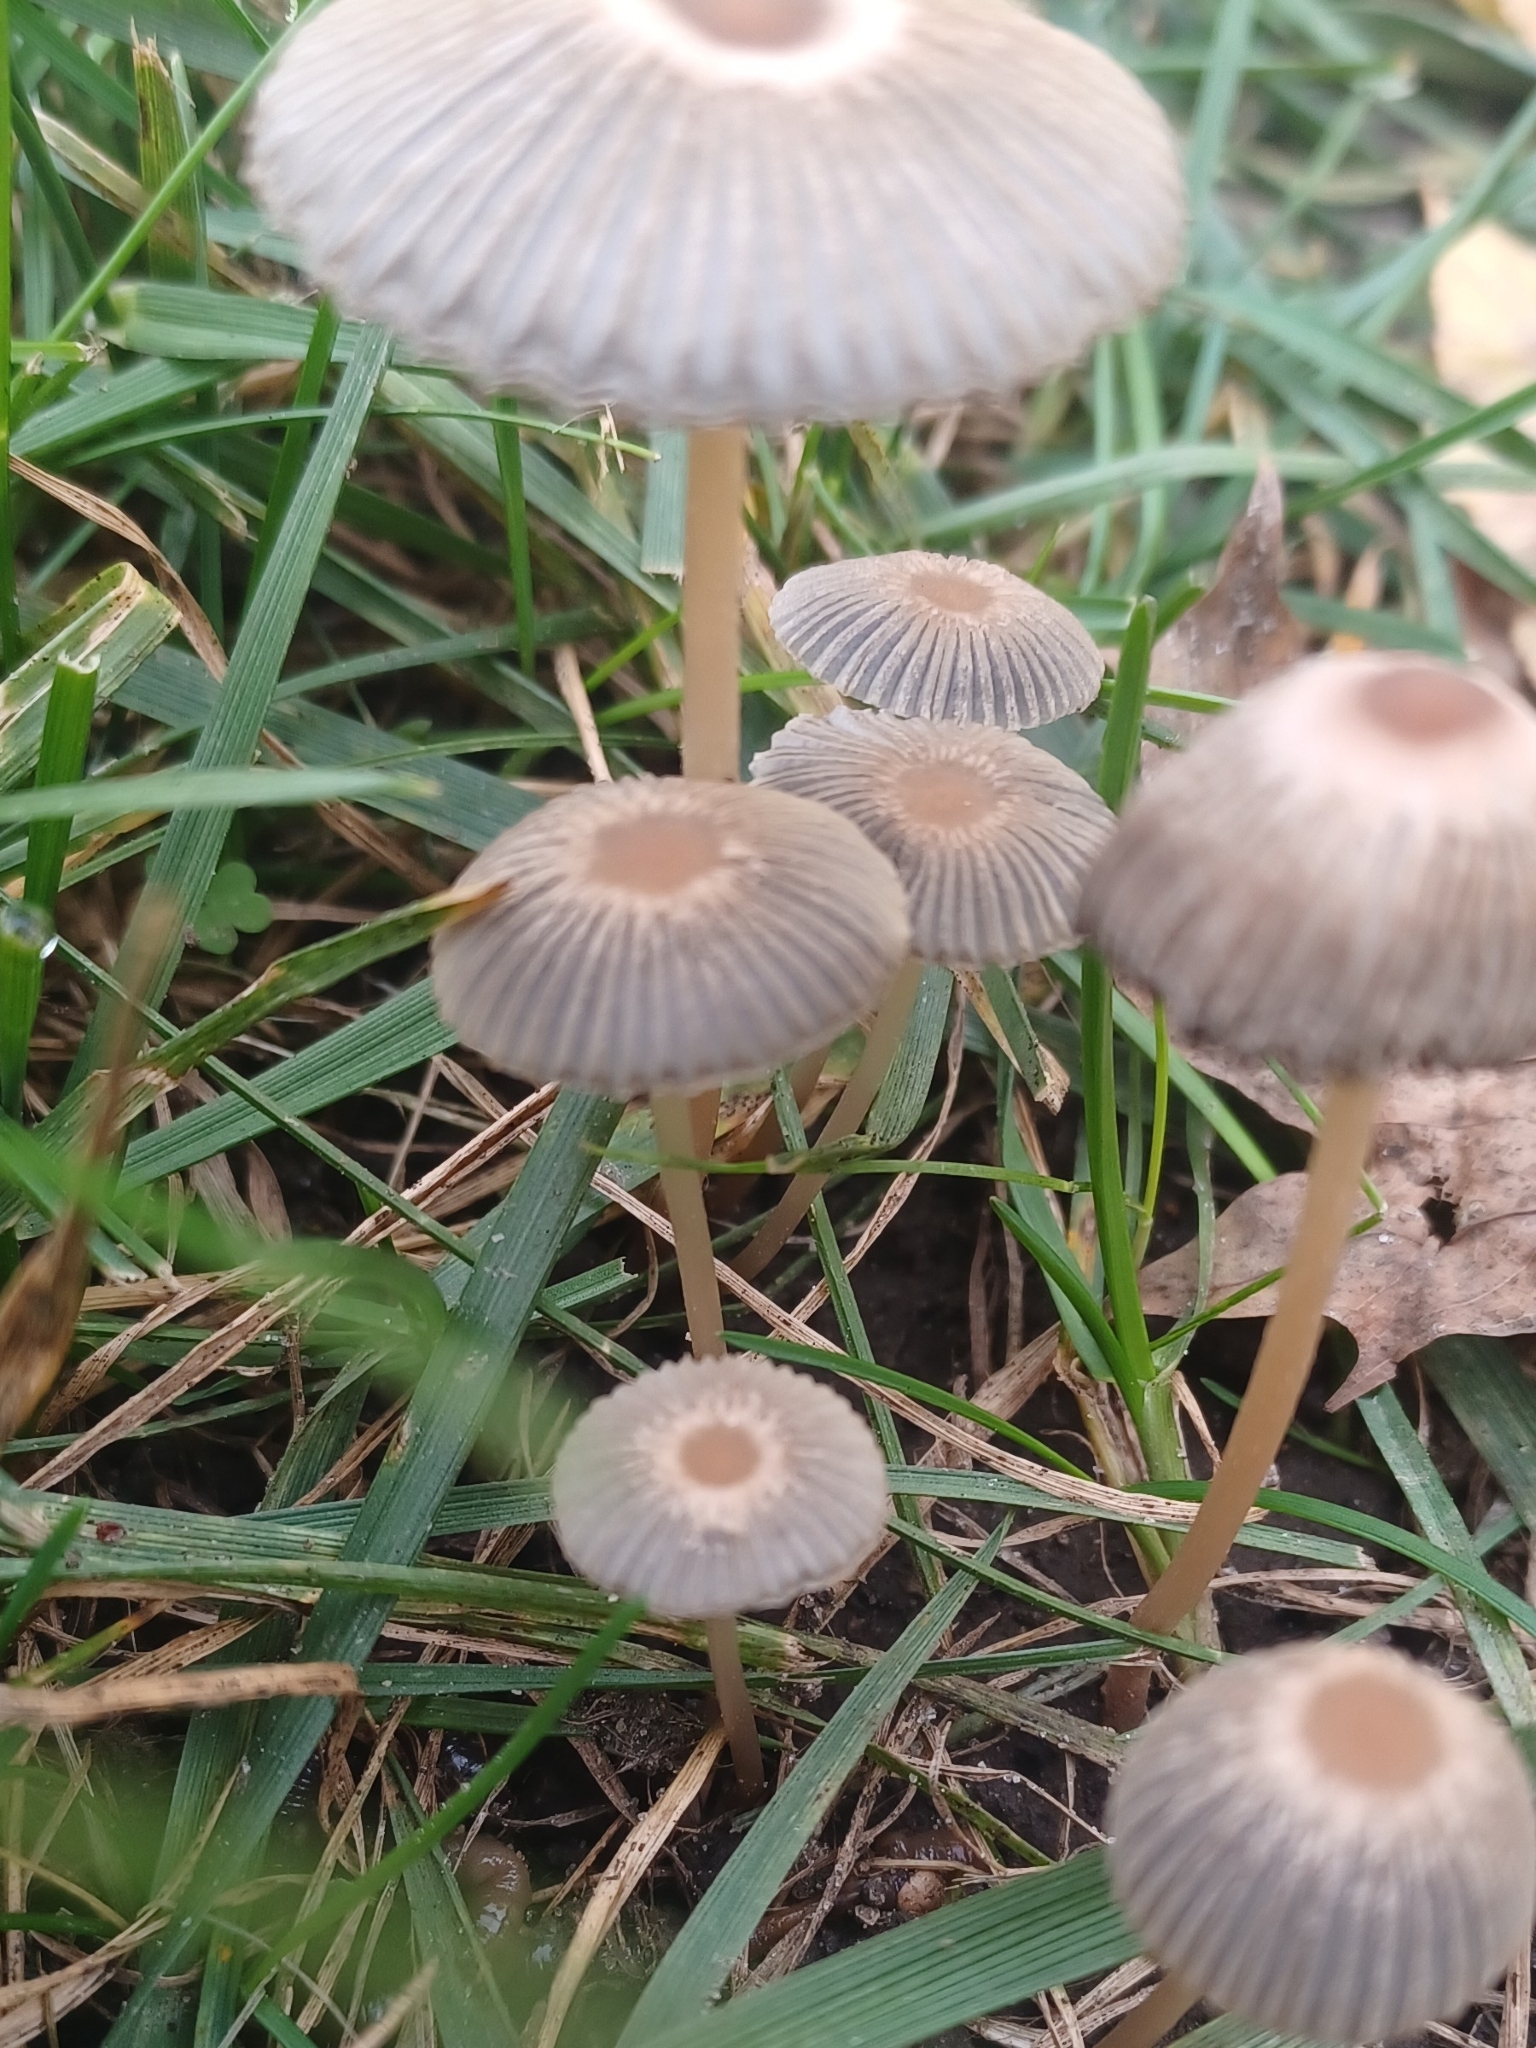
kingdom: Fungi
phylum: Basidiomycota
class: Agaricomycetes
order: Agaricales
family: Psathyrellaceae
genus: Parasola
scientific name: Parasola auricoma
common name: Goldenhaired inkcap
